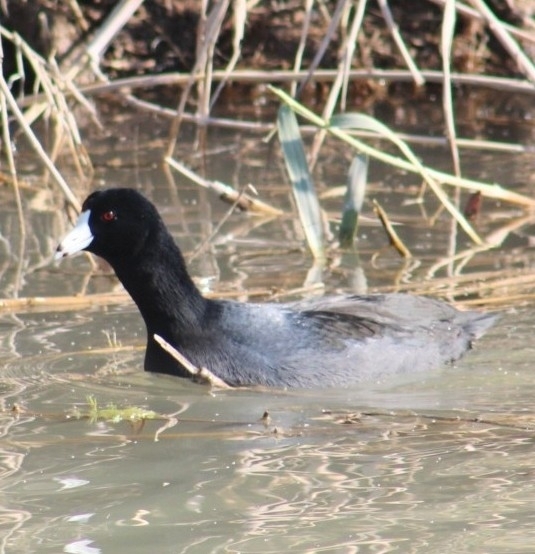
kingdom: Animalia
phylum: Chordata
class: Aves
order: Gruiformes
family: Rallidae
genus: Fulica
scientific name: Fulica americana
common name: American coot
